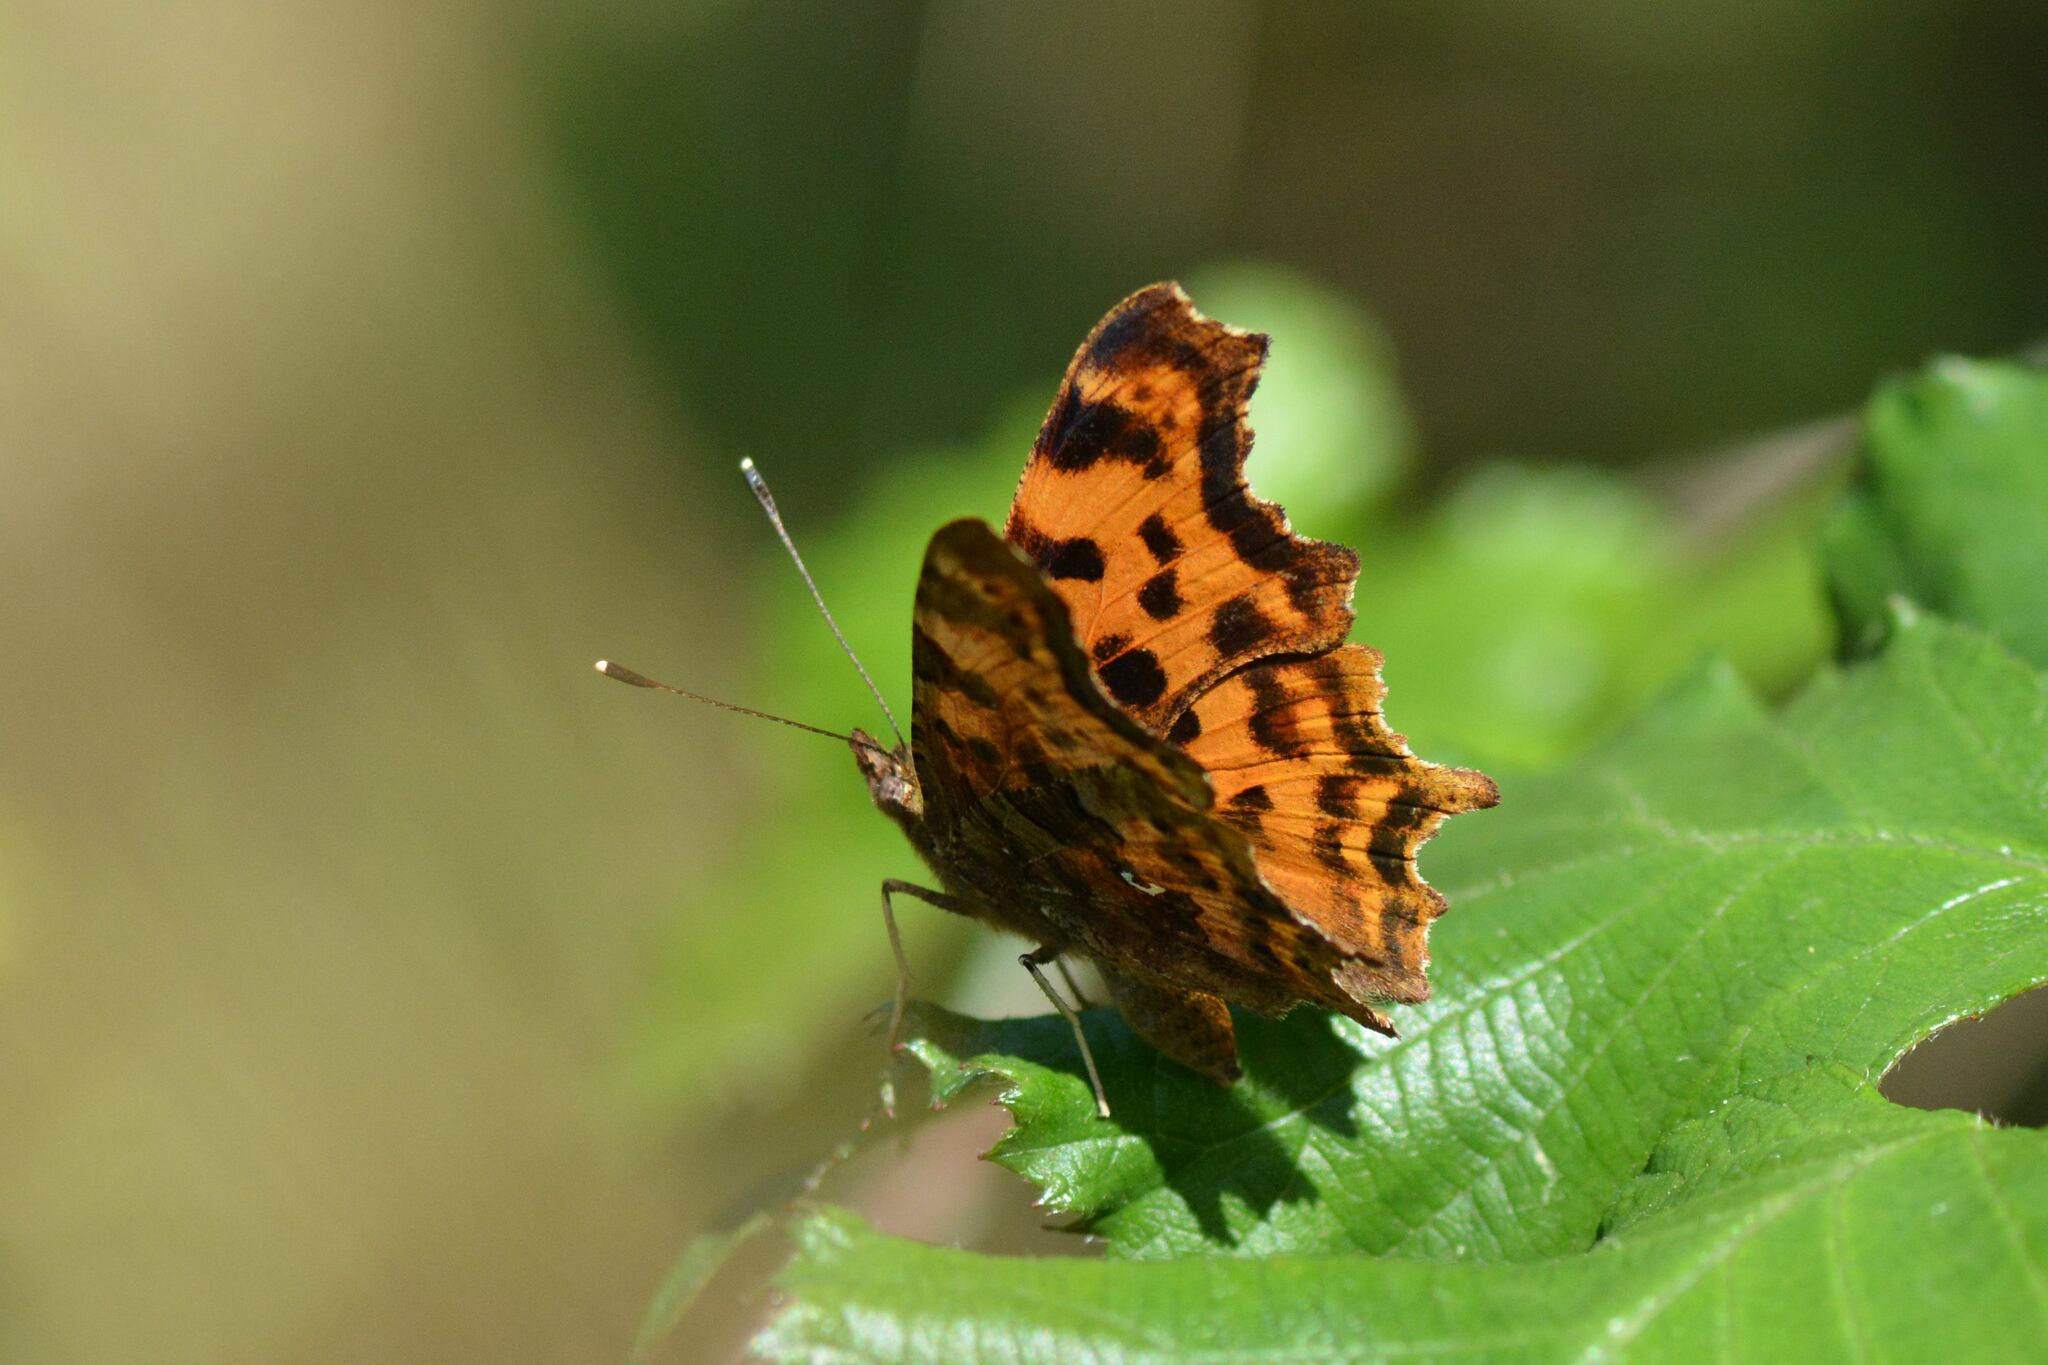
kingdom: Animalia
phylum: Arthropoda
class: Insecta
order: Lepidoptera
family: Nymphalidae
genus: Polygonia
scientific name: Polygonia c-album
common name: Comma
